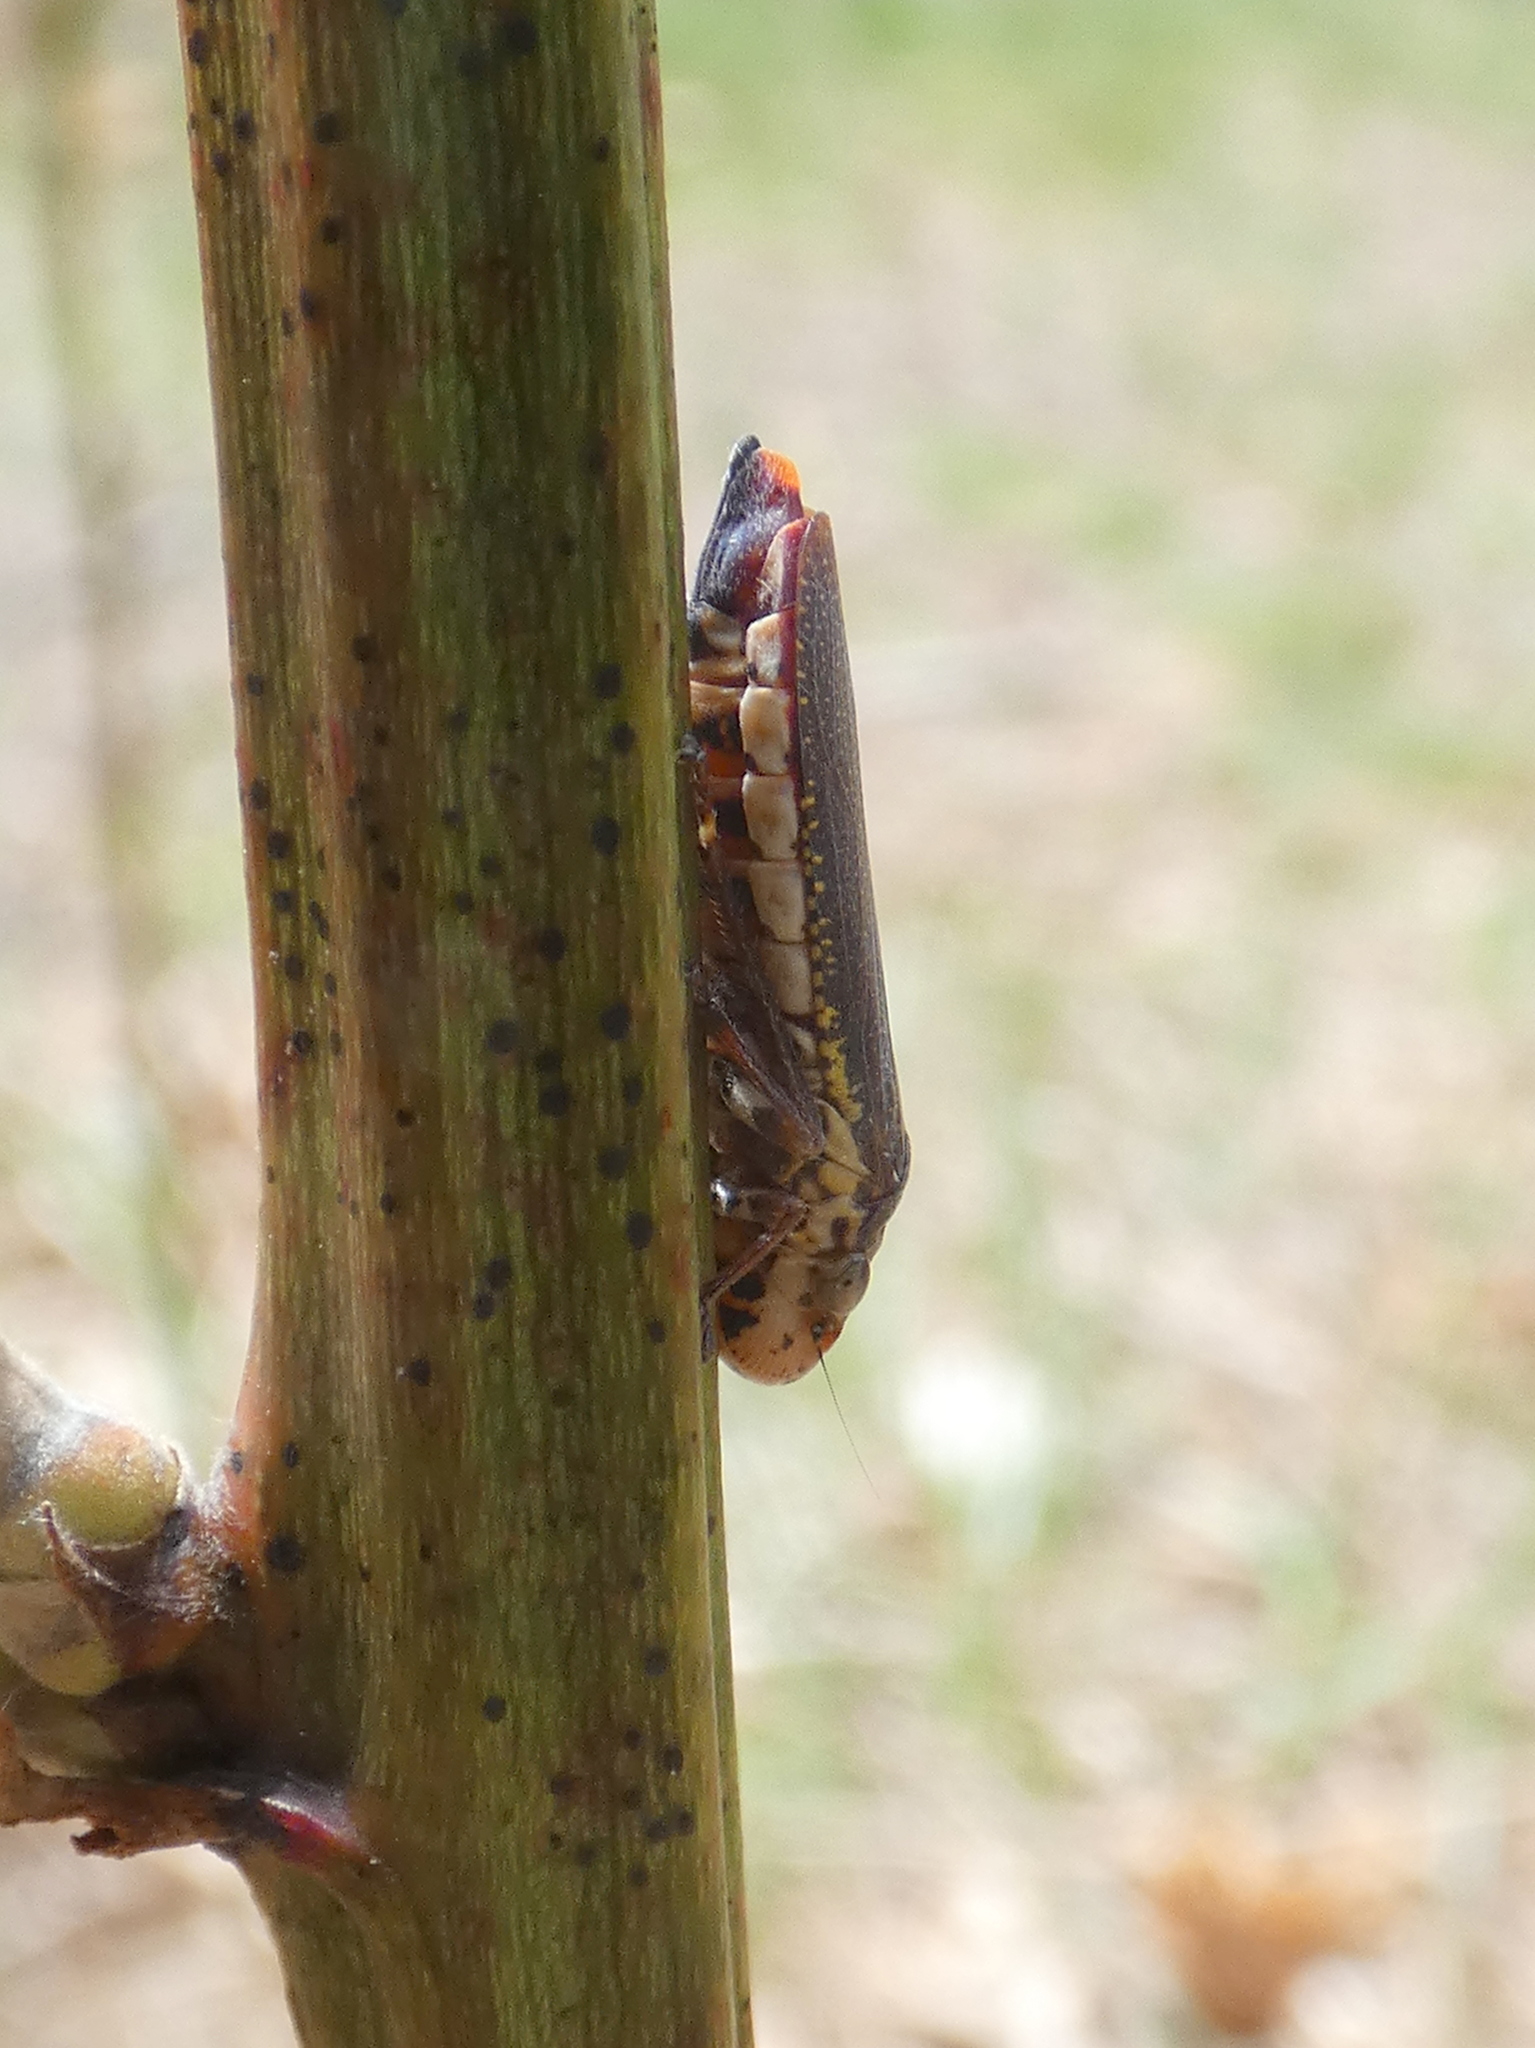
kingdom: Animalia
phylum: Arthropoda
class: Insecta
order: Hemiptera
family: Cicadellidae
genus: Paraulacizes
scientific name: Paraulacizes irrorata
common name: Speckled sharpshooter
